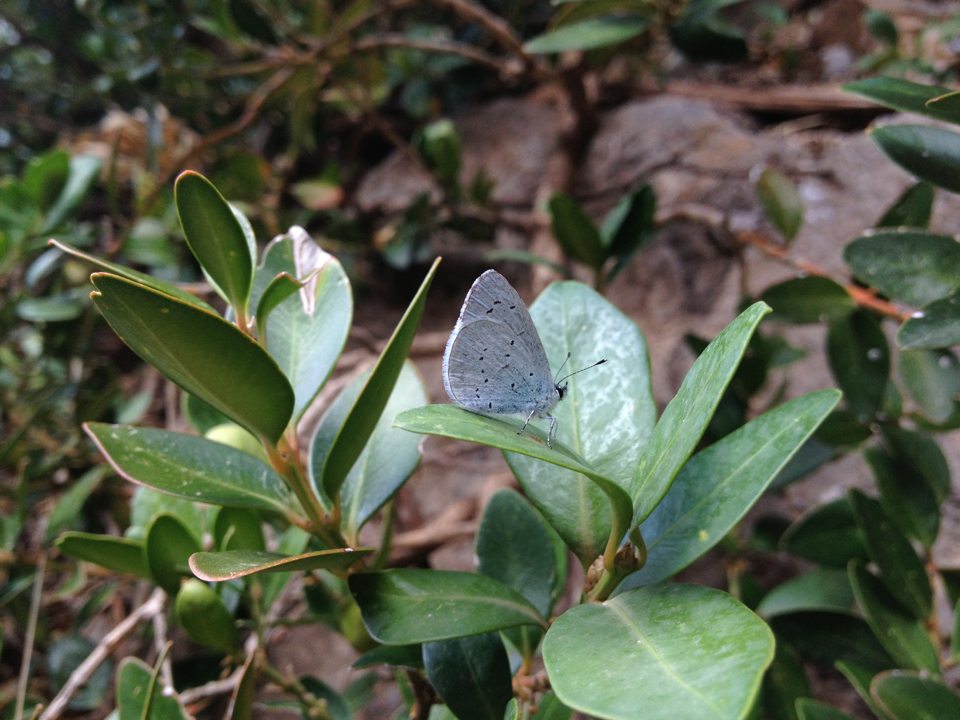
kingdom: Animalia
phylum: Arthropoda
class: Insecta
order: Lepidoptera
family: Lycaenidae
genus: Celastrina
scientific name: Celastrina argiolus
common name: Holly blue
